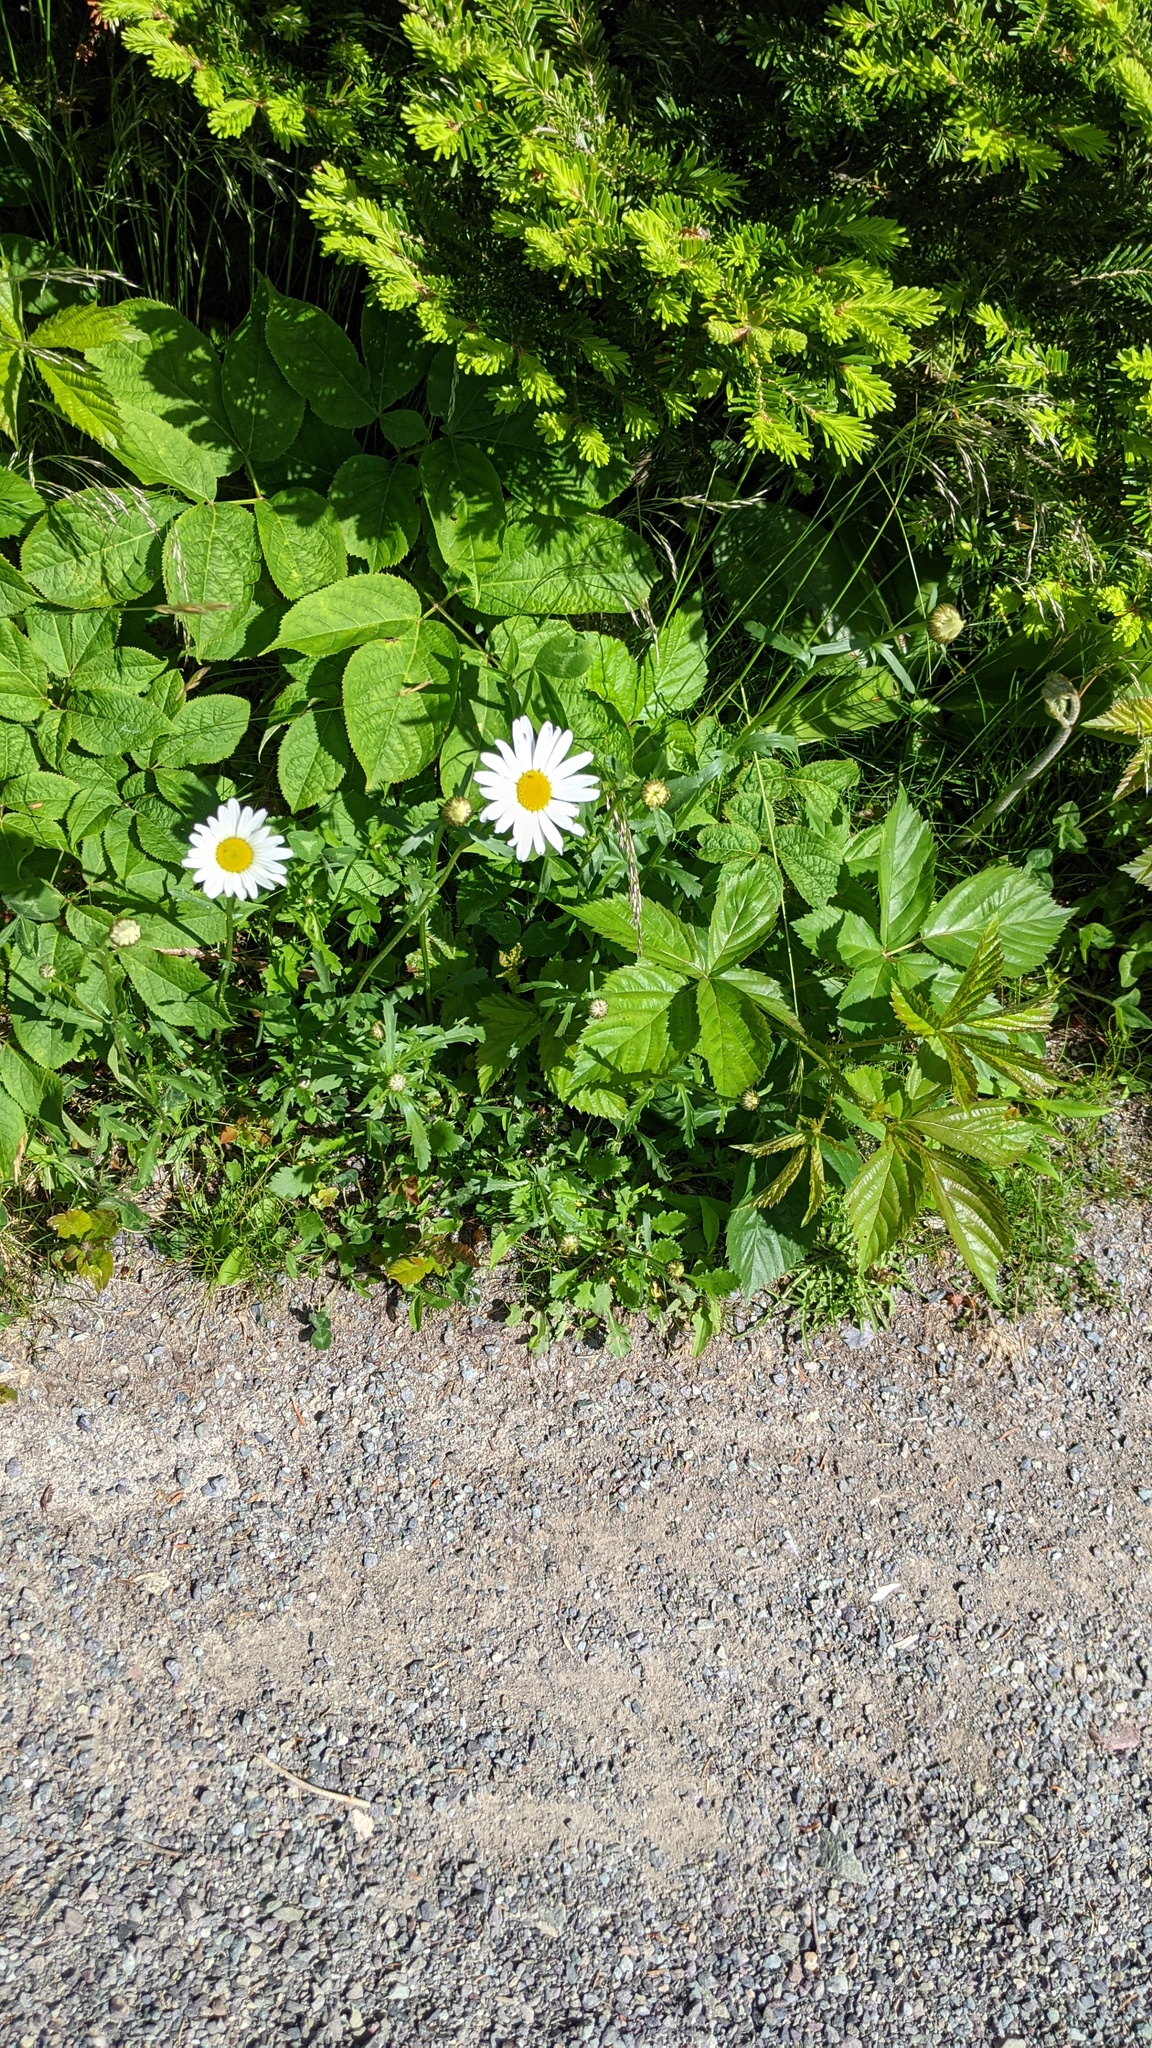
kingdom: Plantae
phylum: Tracheophyta
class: Magnoliopsida
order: Asterales
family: Asteraceae
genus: Leucanthemum
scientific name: Leucanthemum vulgare
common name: Oxeye daisy
